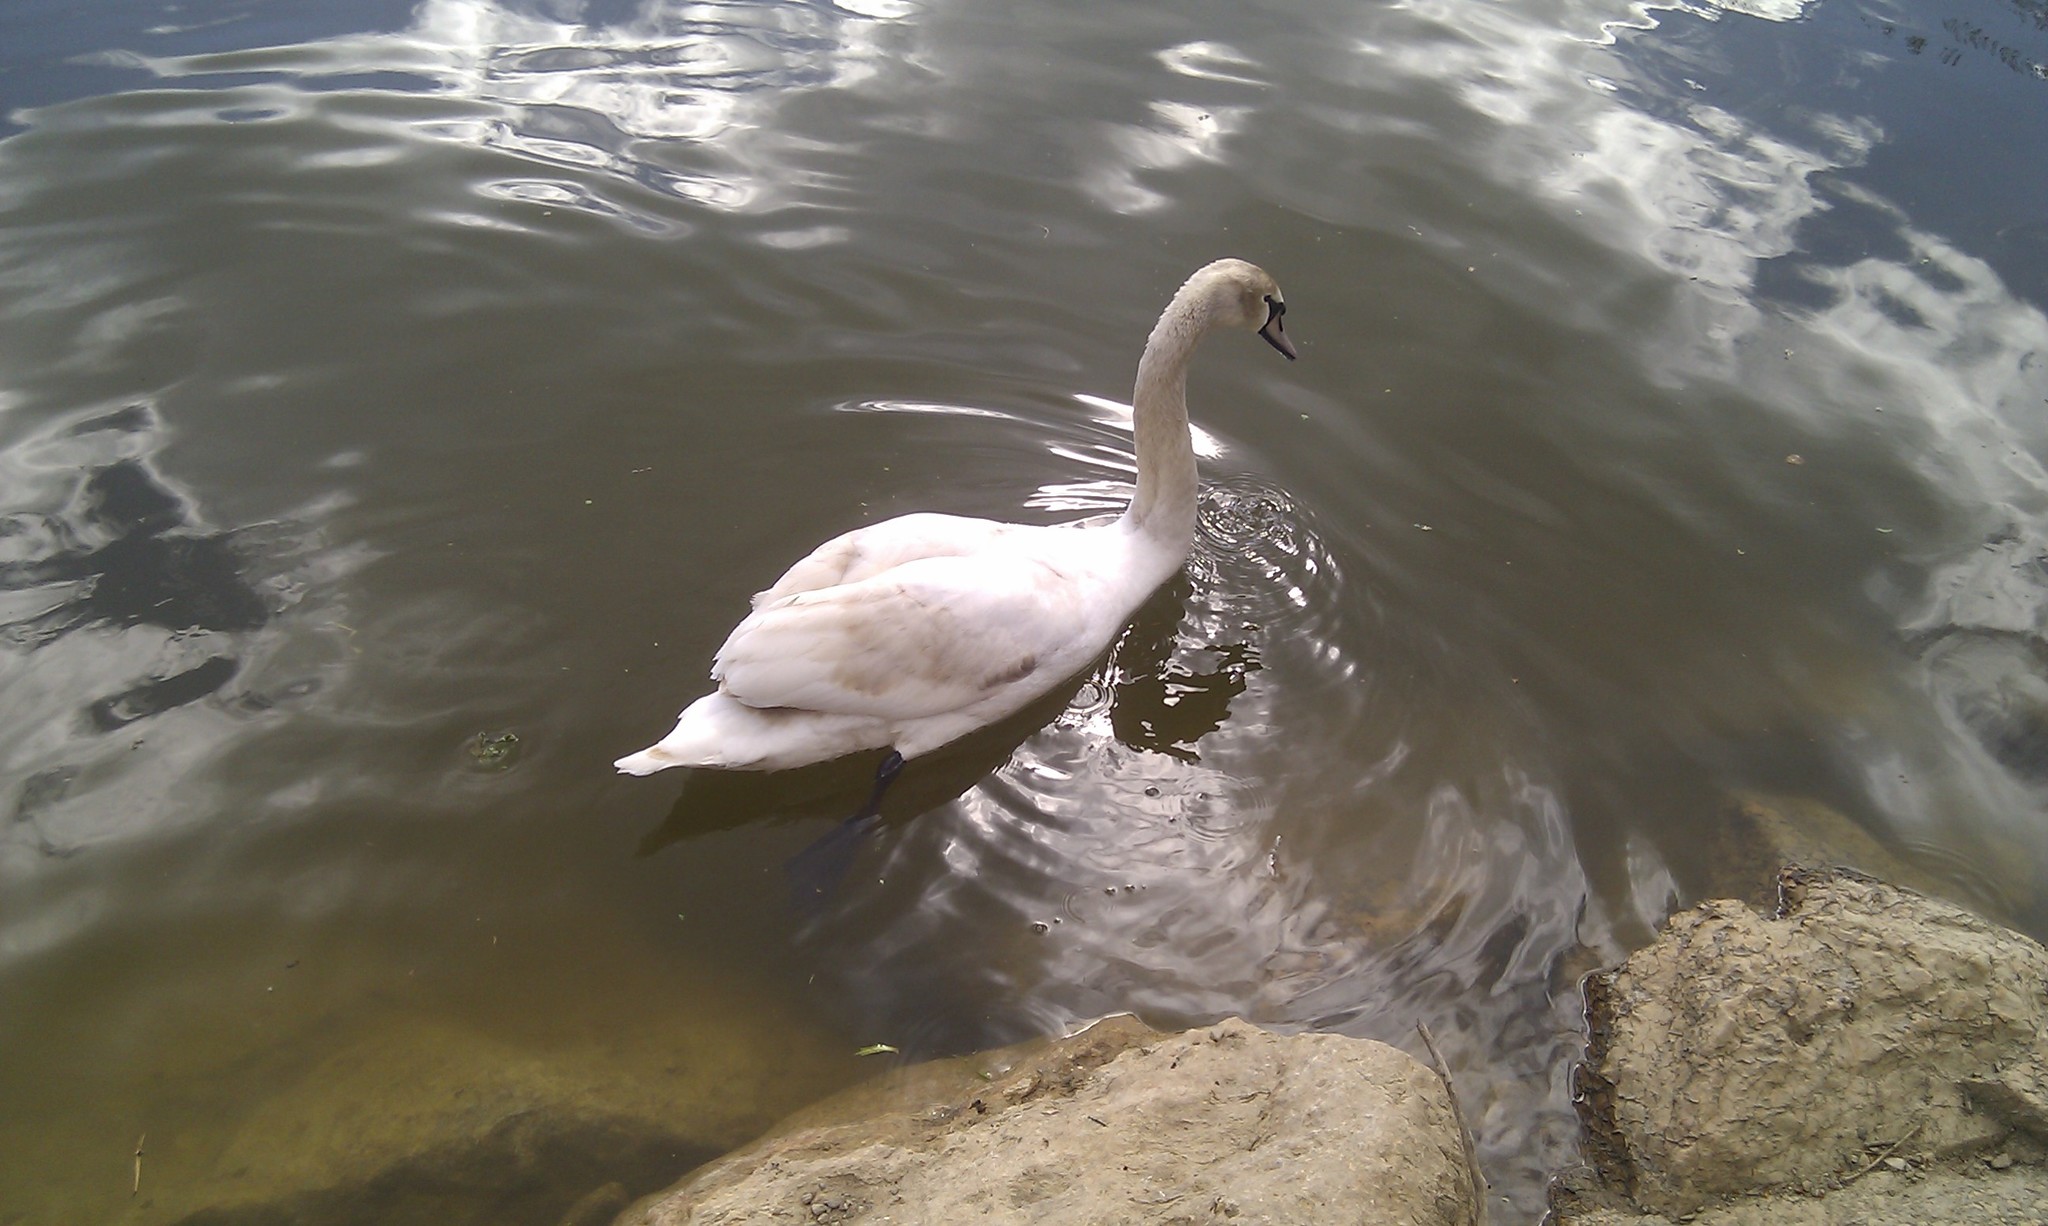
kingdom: Animalia
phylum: Chordata
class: Aves
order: Anseriformes
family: Anatidae
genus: Cygnus
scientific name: Cygnus olor
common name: Mute swan
